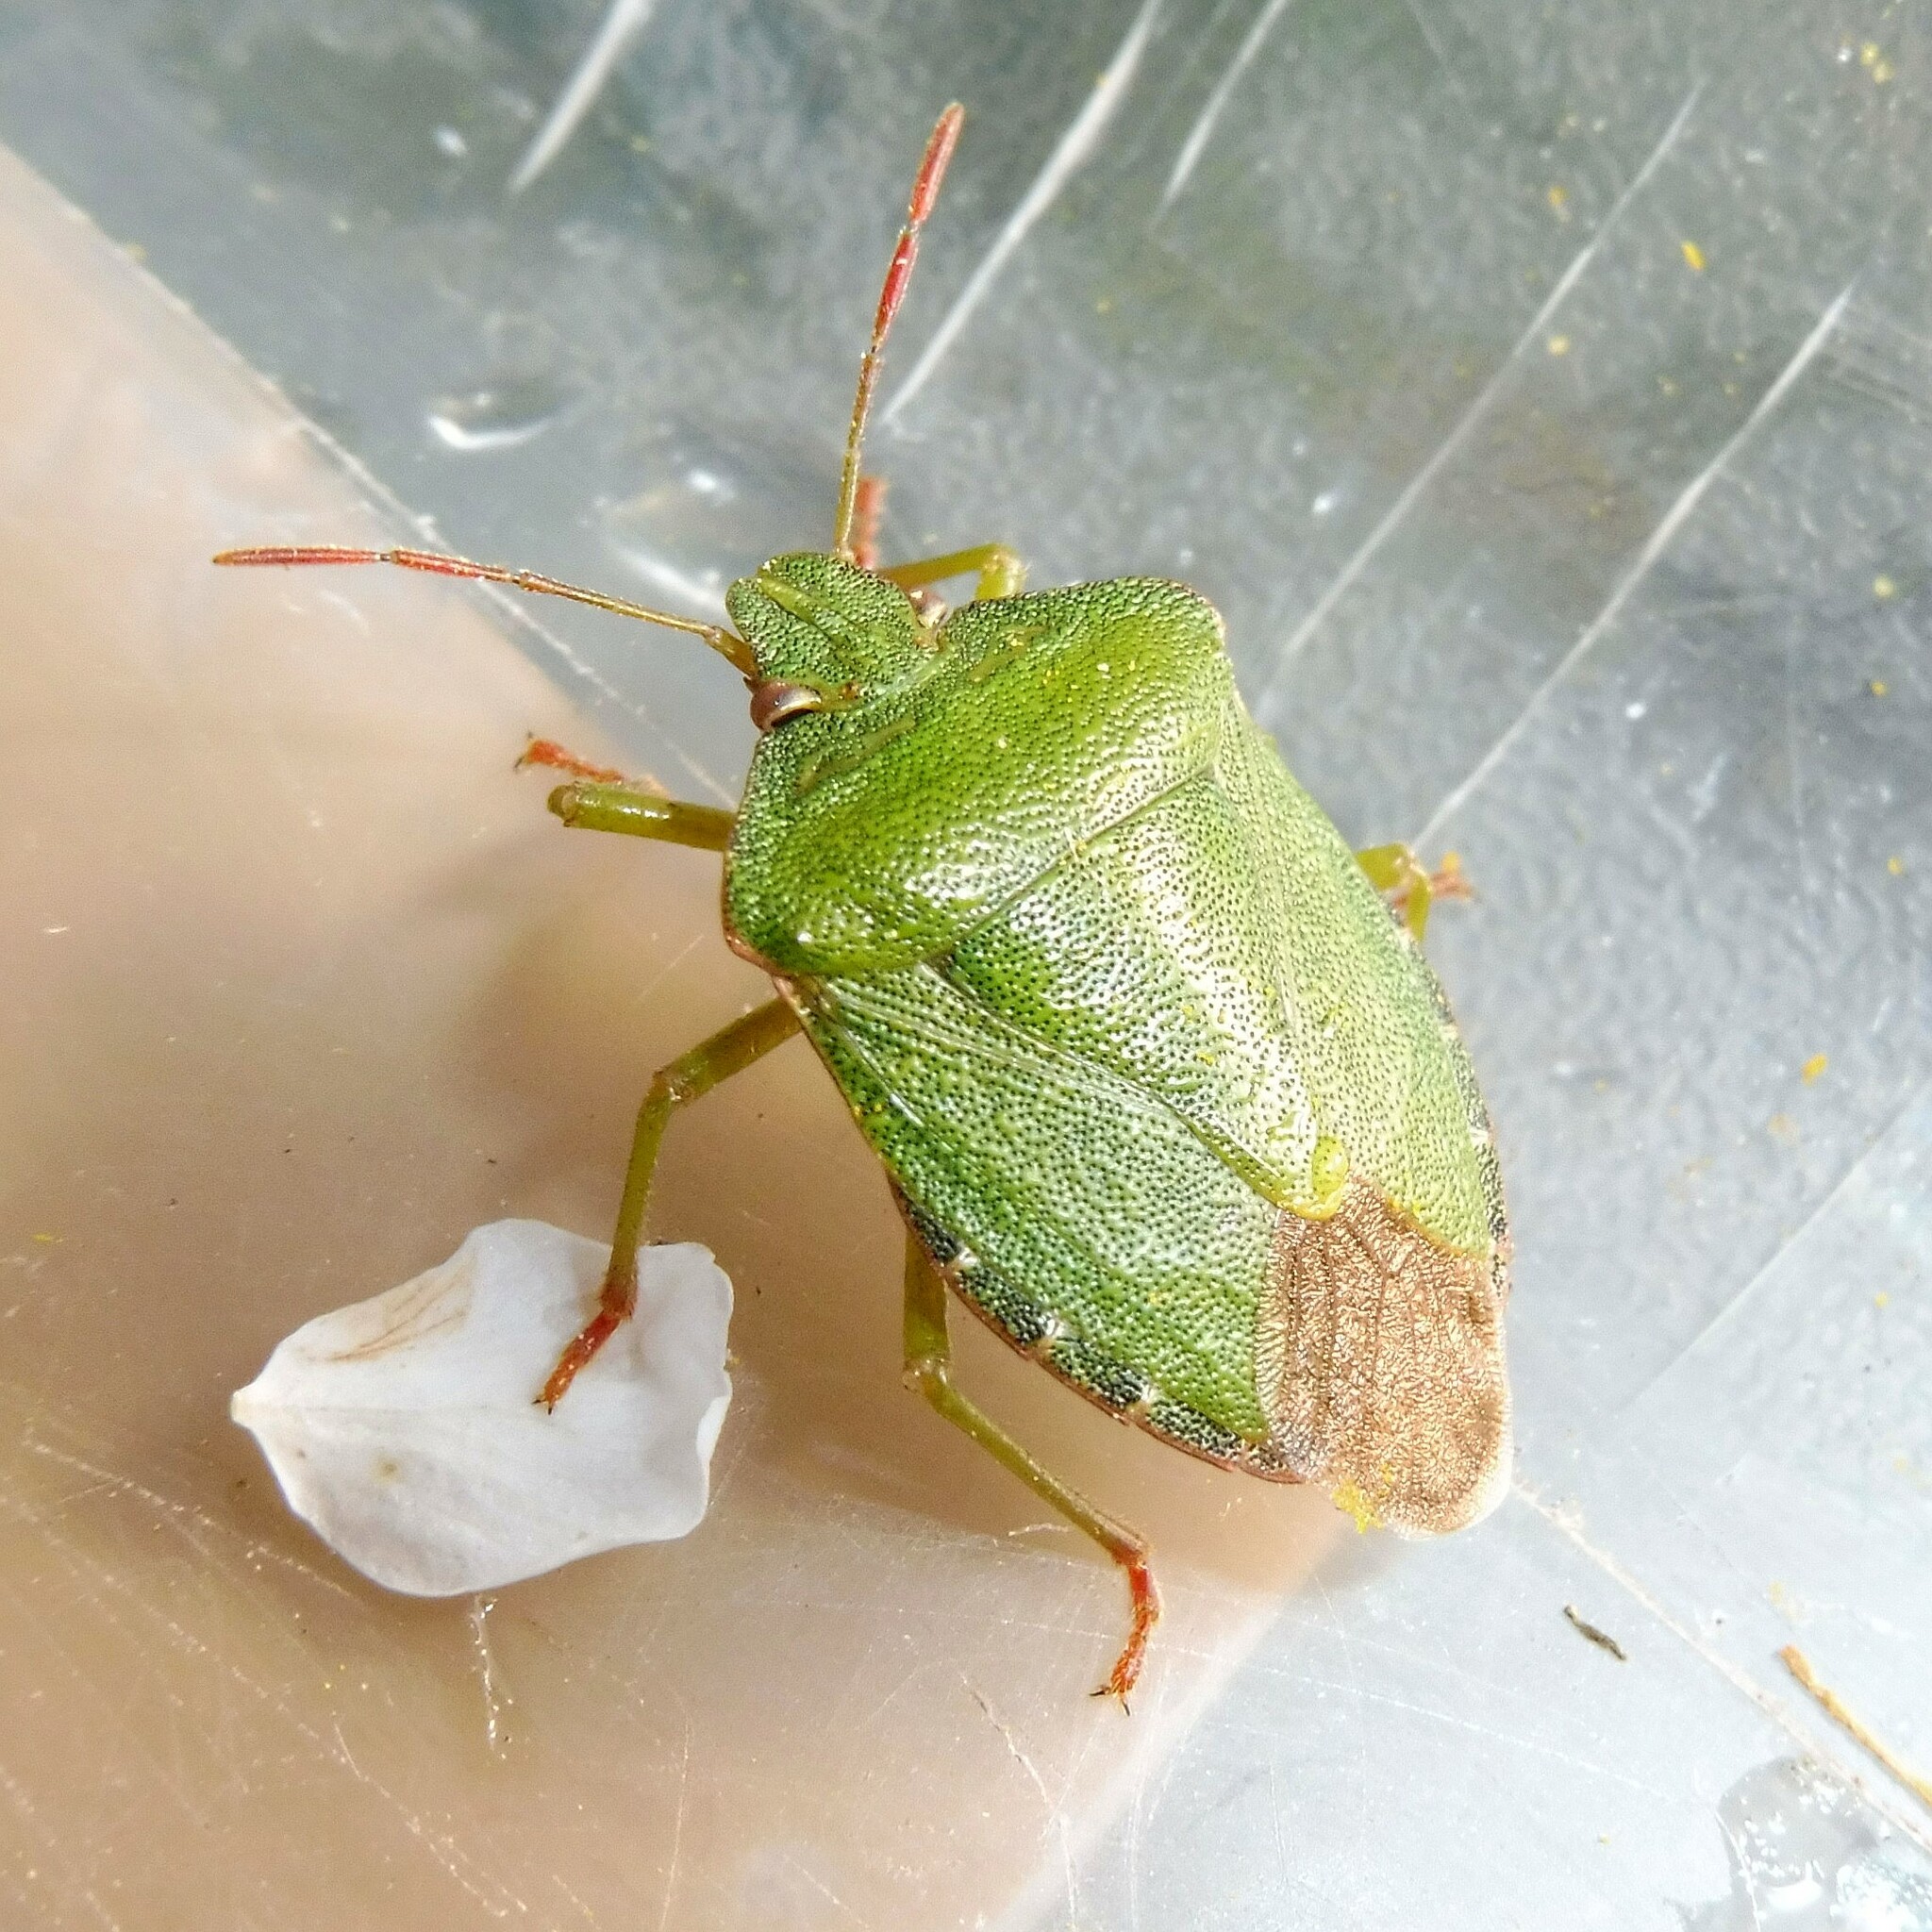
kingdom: Animalia
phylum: Arthropoda
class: Insecta
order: Hemiptera
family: Pentatomidae
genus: Palomena
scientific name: Palomena prasina
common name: Green shieldbug
